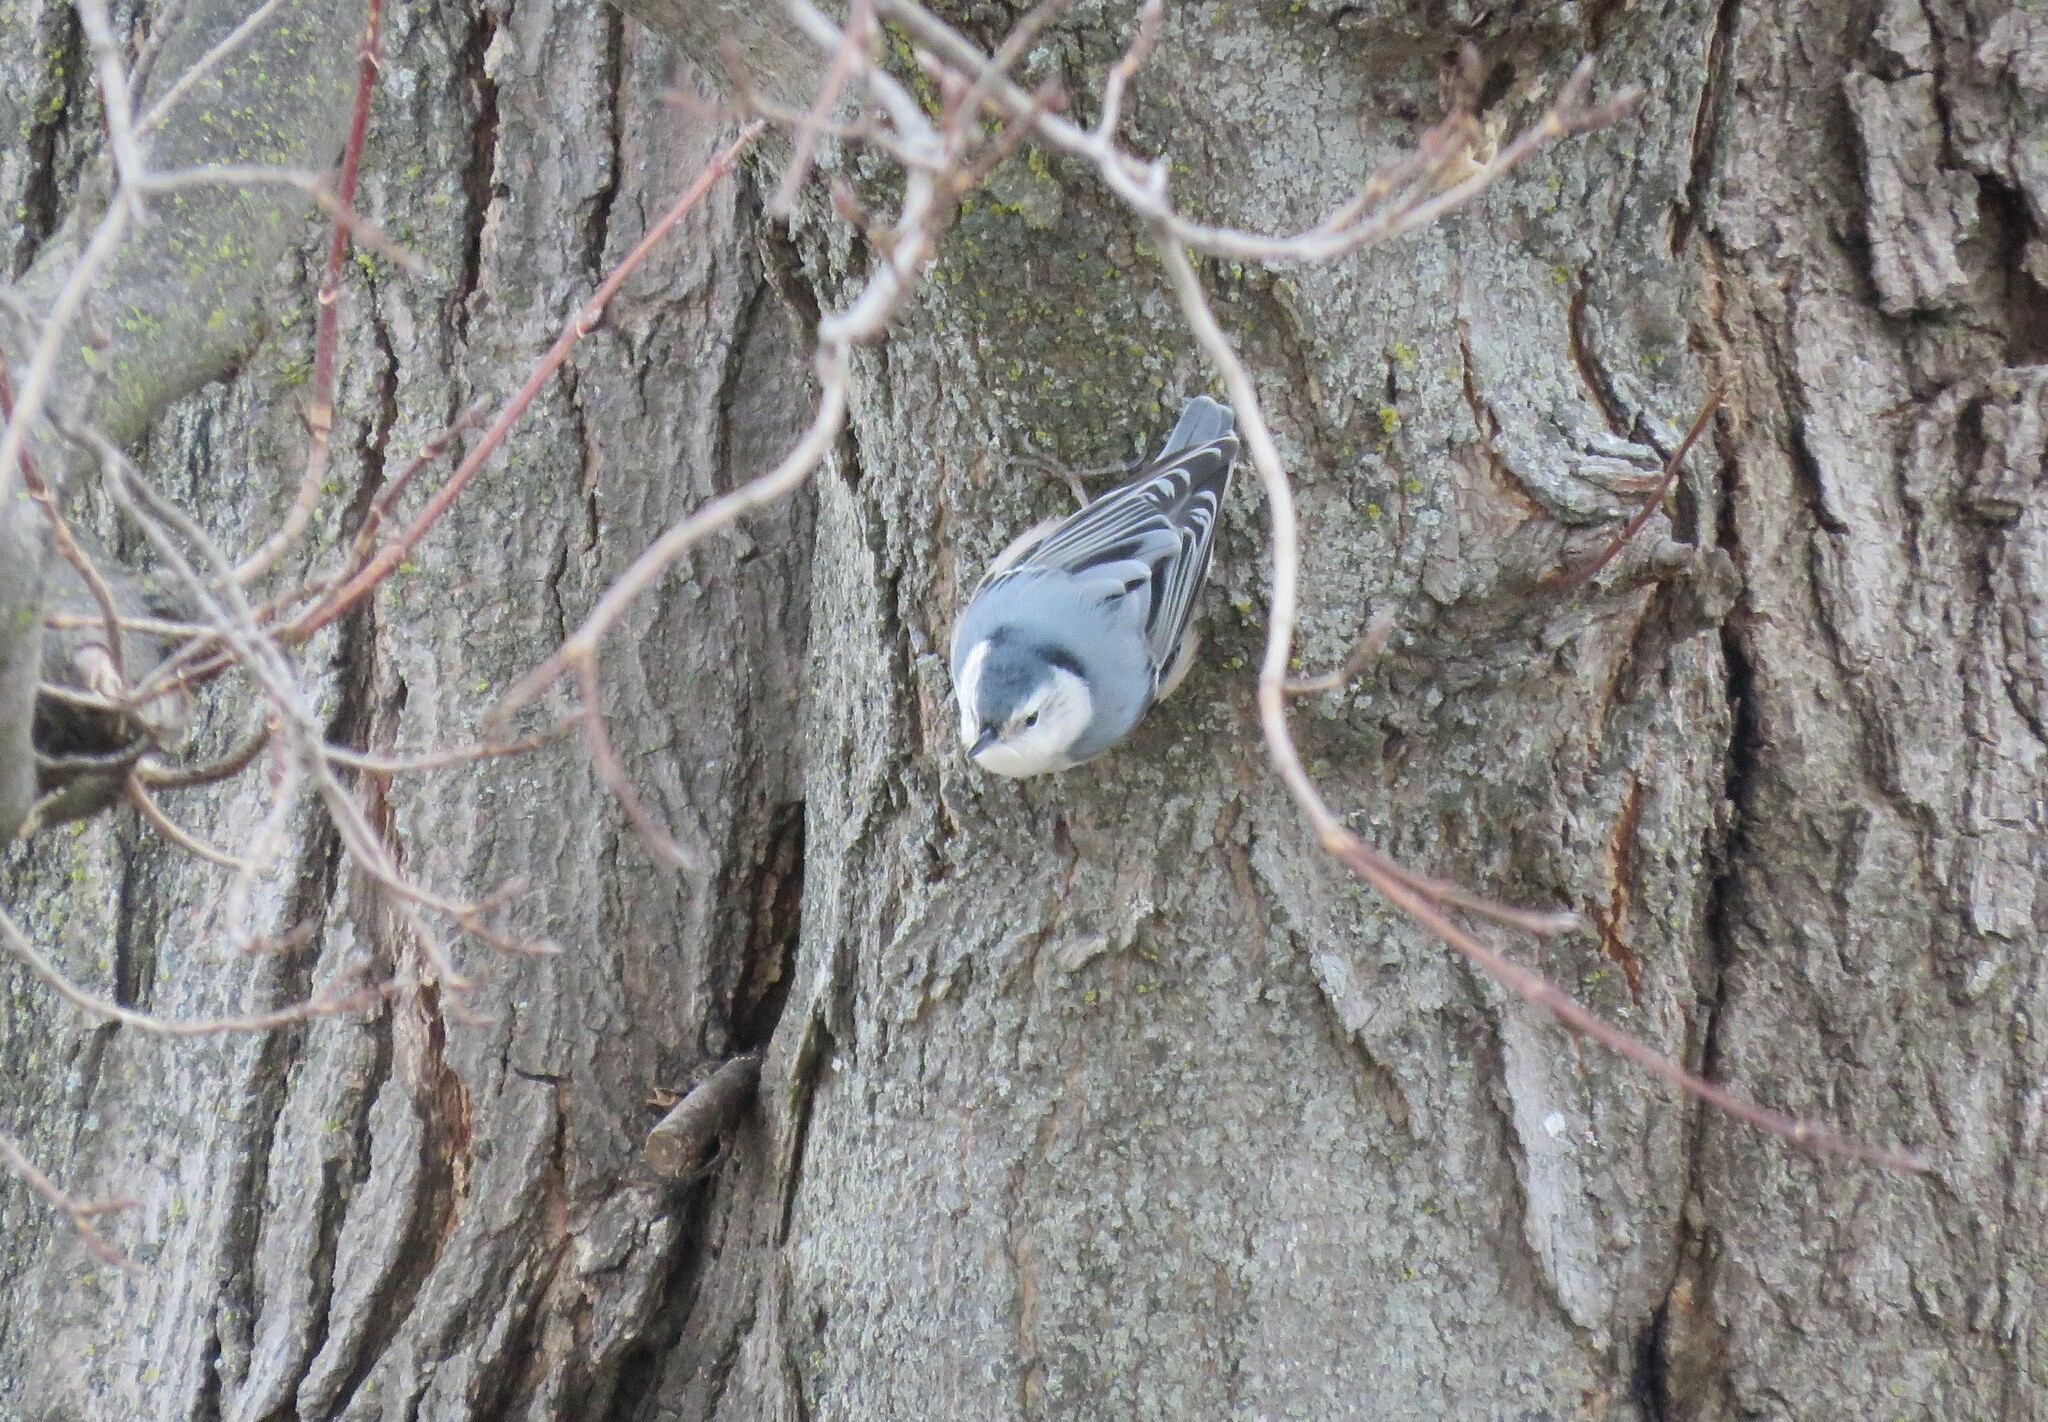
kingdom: Animalia
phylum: Chordata
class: Aves
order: Passeriformes
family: Sittidae
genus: Sitta
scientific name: Sitta carolinensis
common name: White-breasted nuthatch
